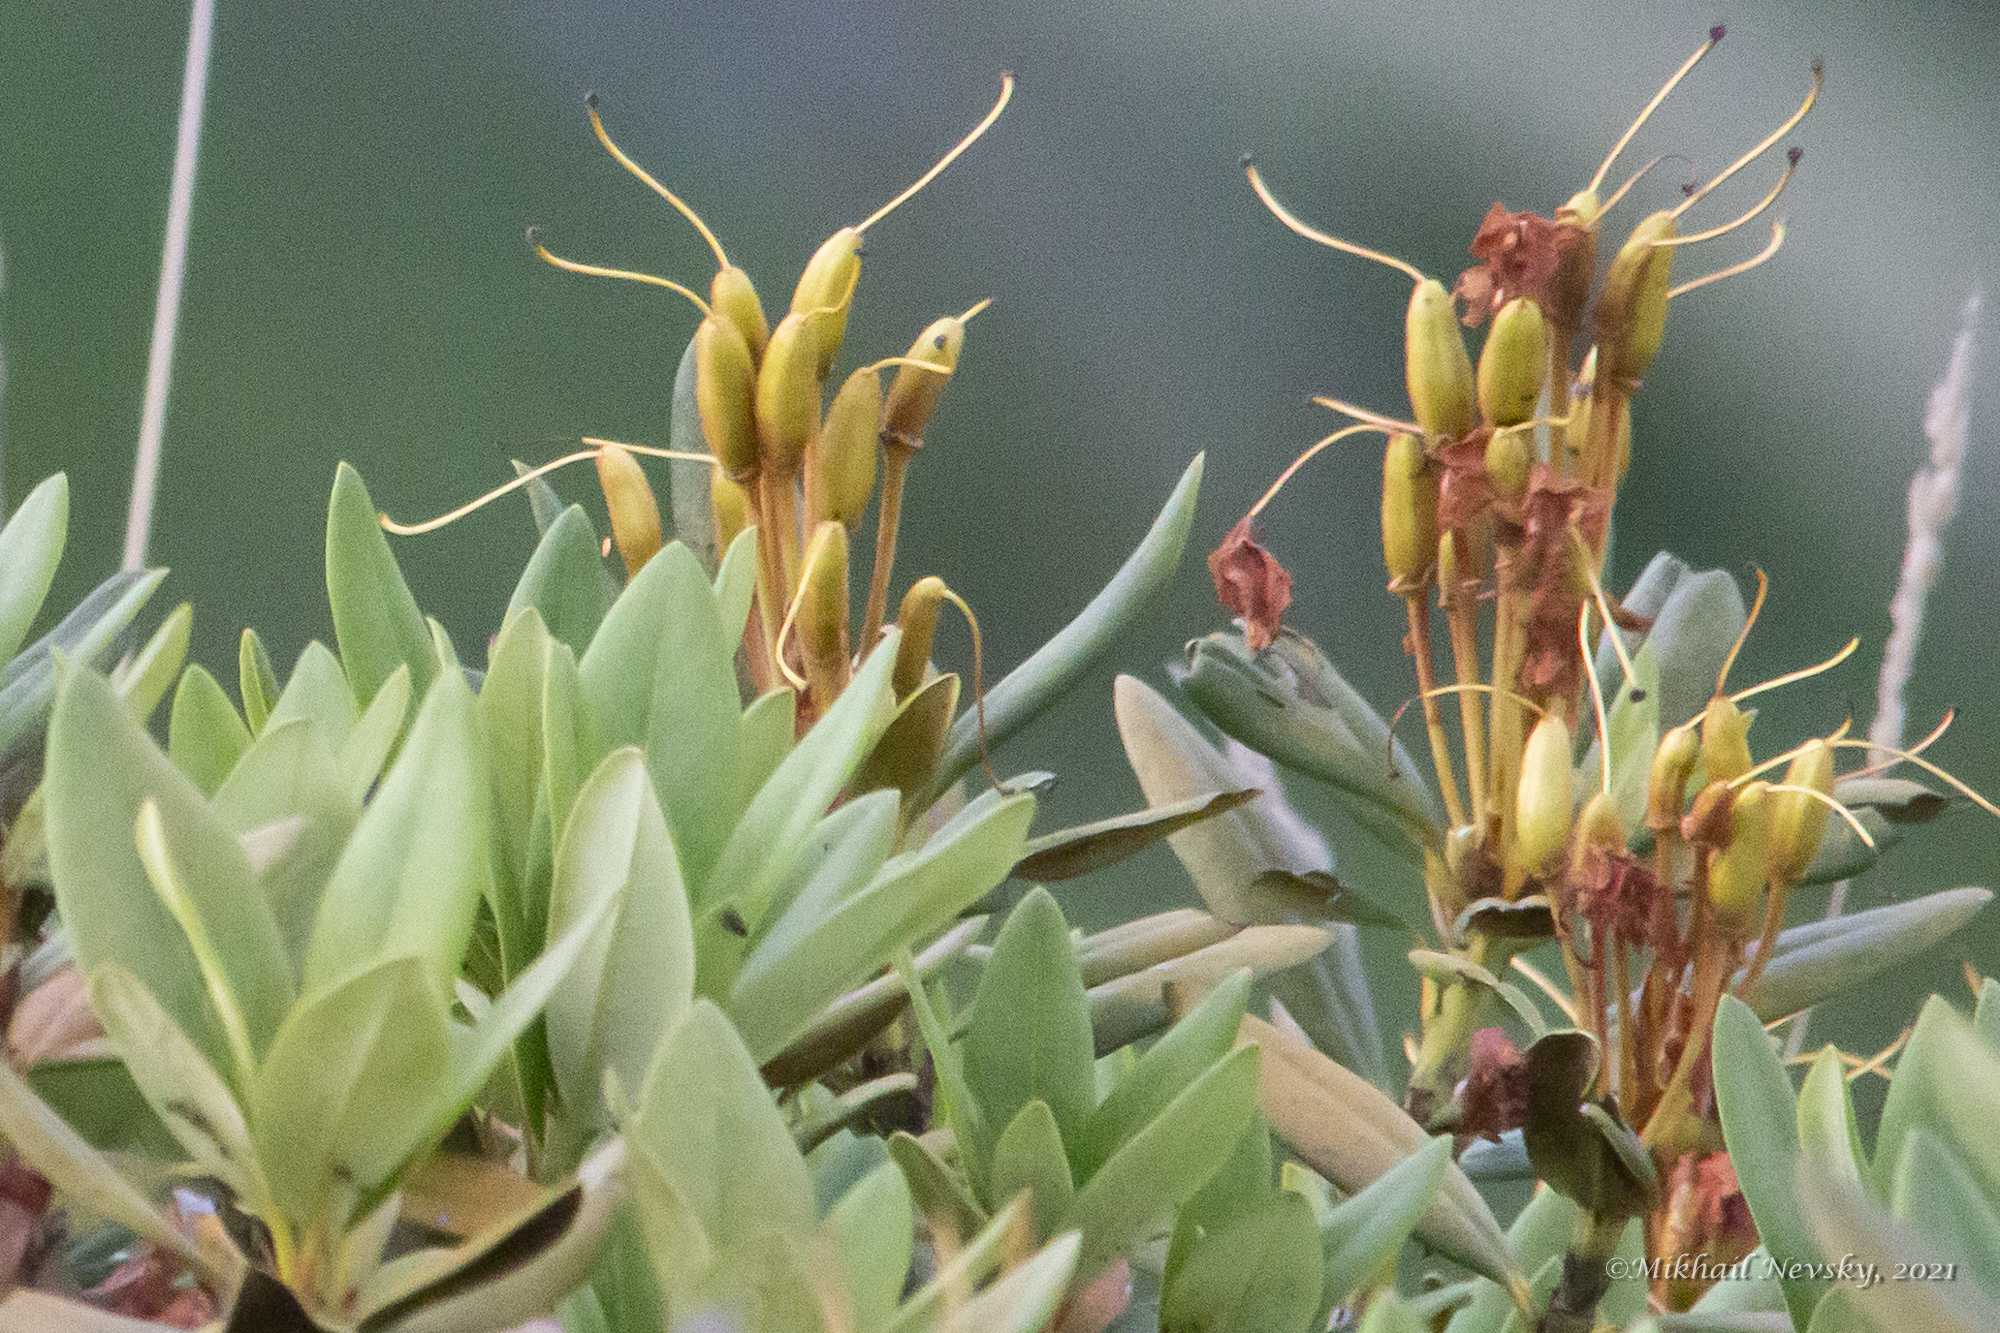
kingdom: Plantae
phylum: Tracheophyta
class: Magnoliopsida
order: Ericales
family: Ericaceae
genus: Rhododendron
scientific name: Rhododendron caucasicum
